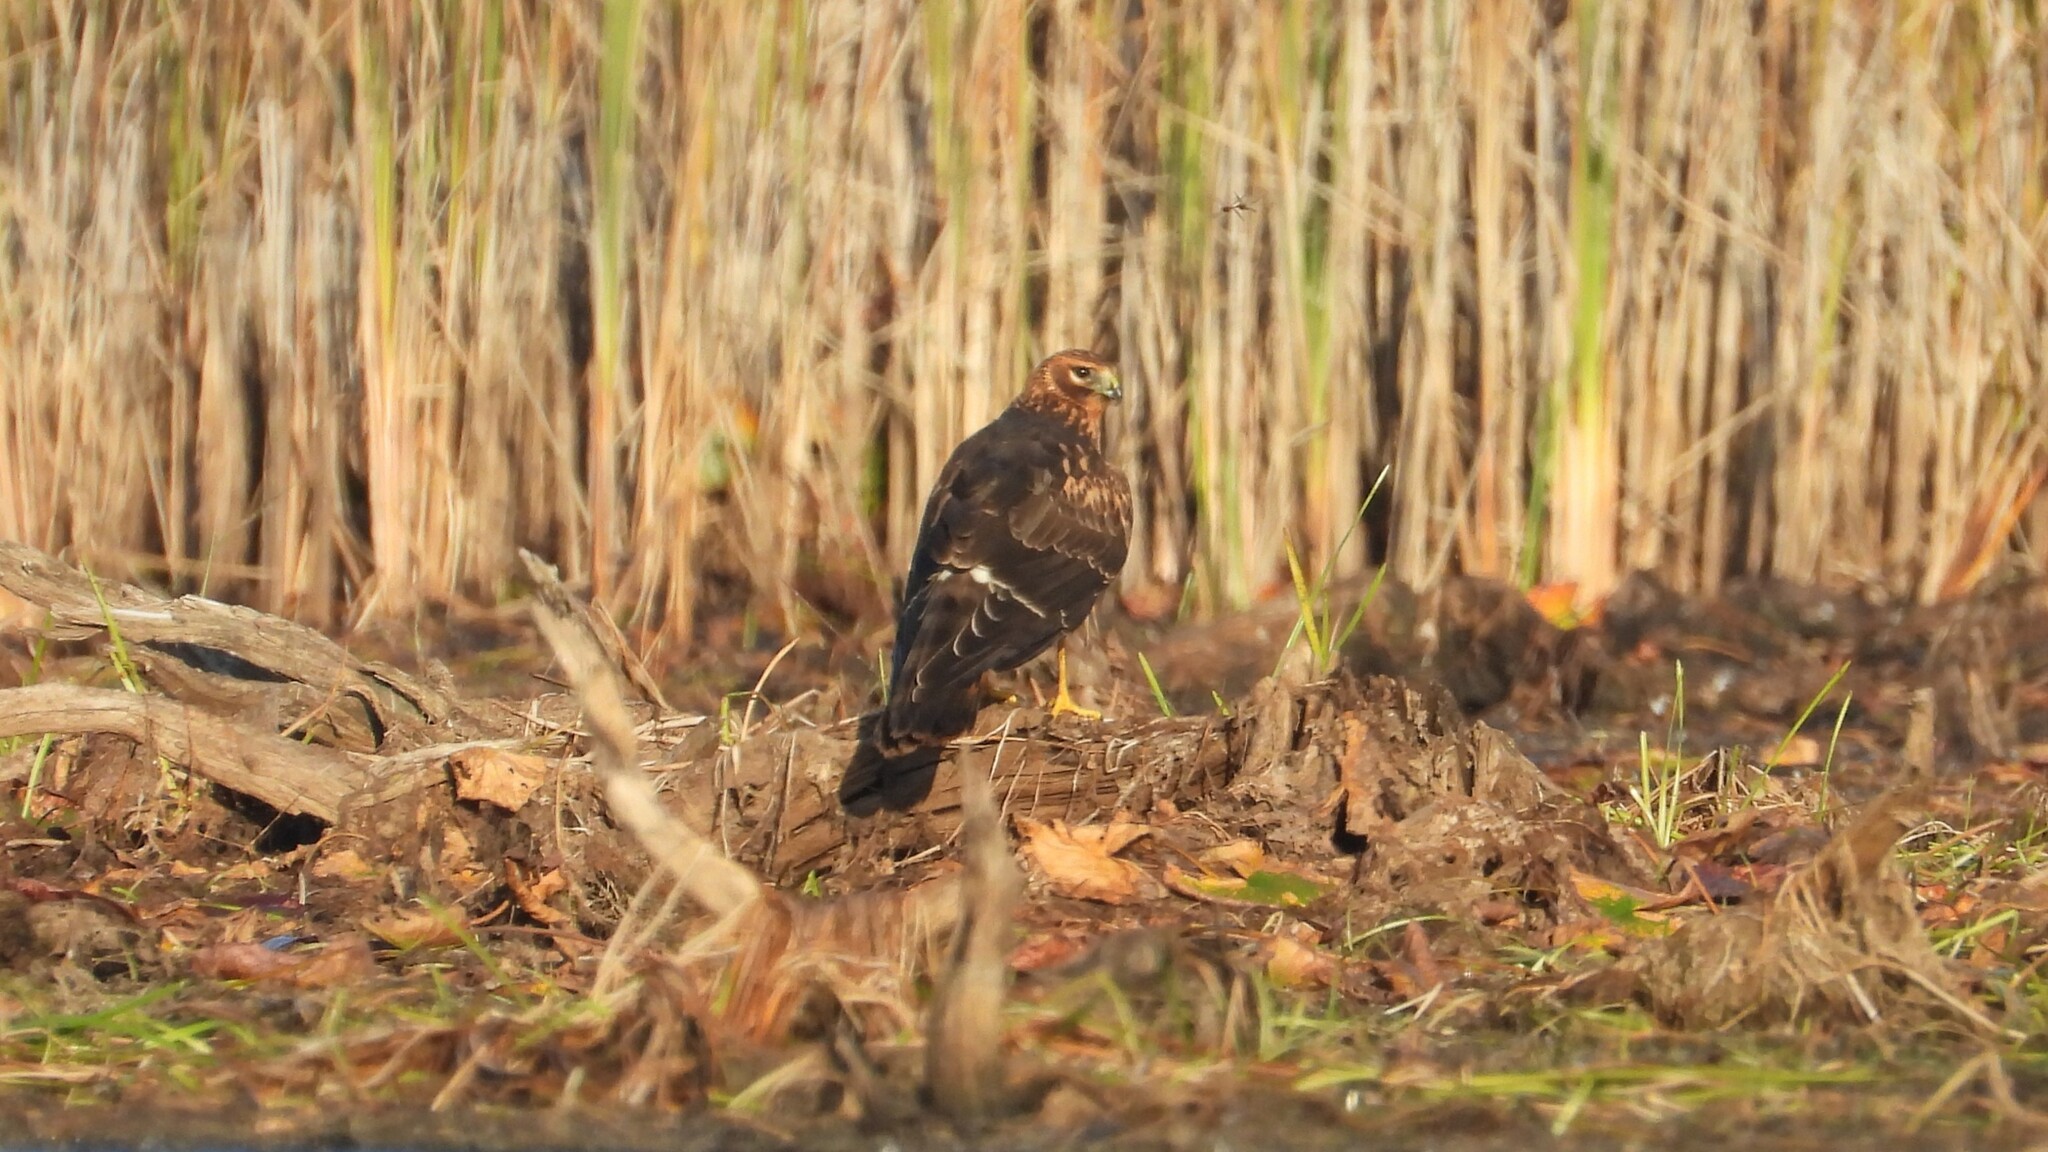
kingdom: Animalia
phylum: Chordata
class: Aves
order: Accipitriformes
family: Accipitridae
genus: Circus
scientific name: Circus cyaneus
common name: Hen harrier
